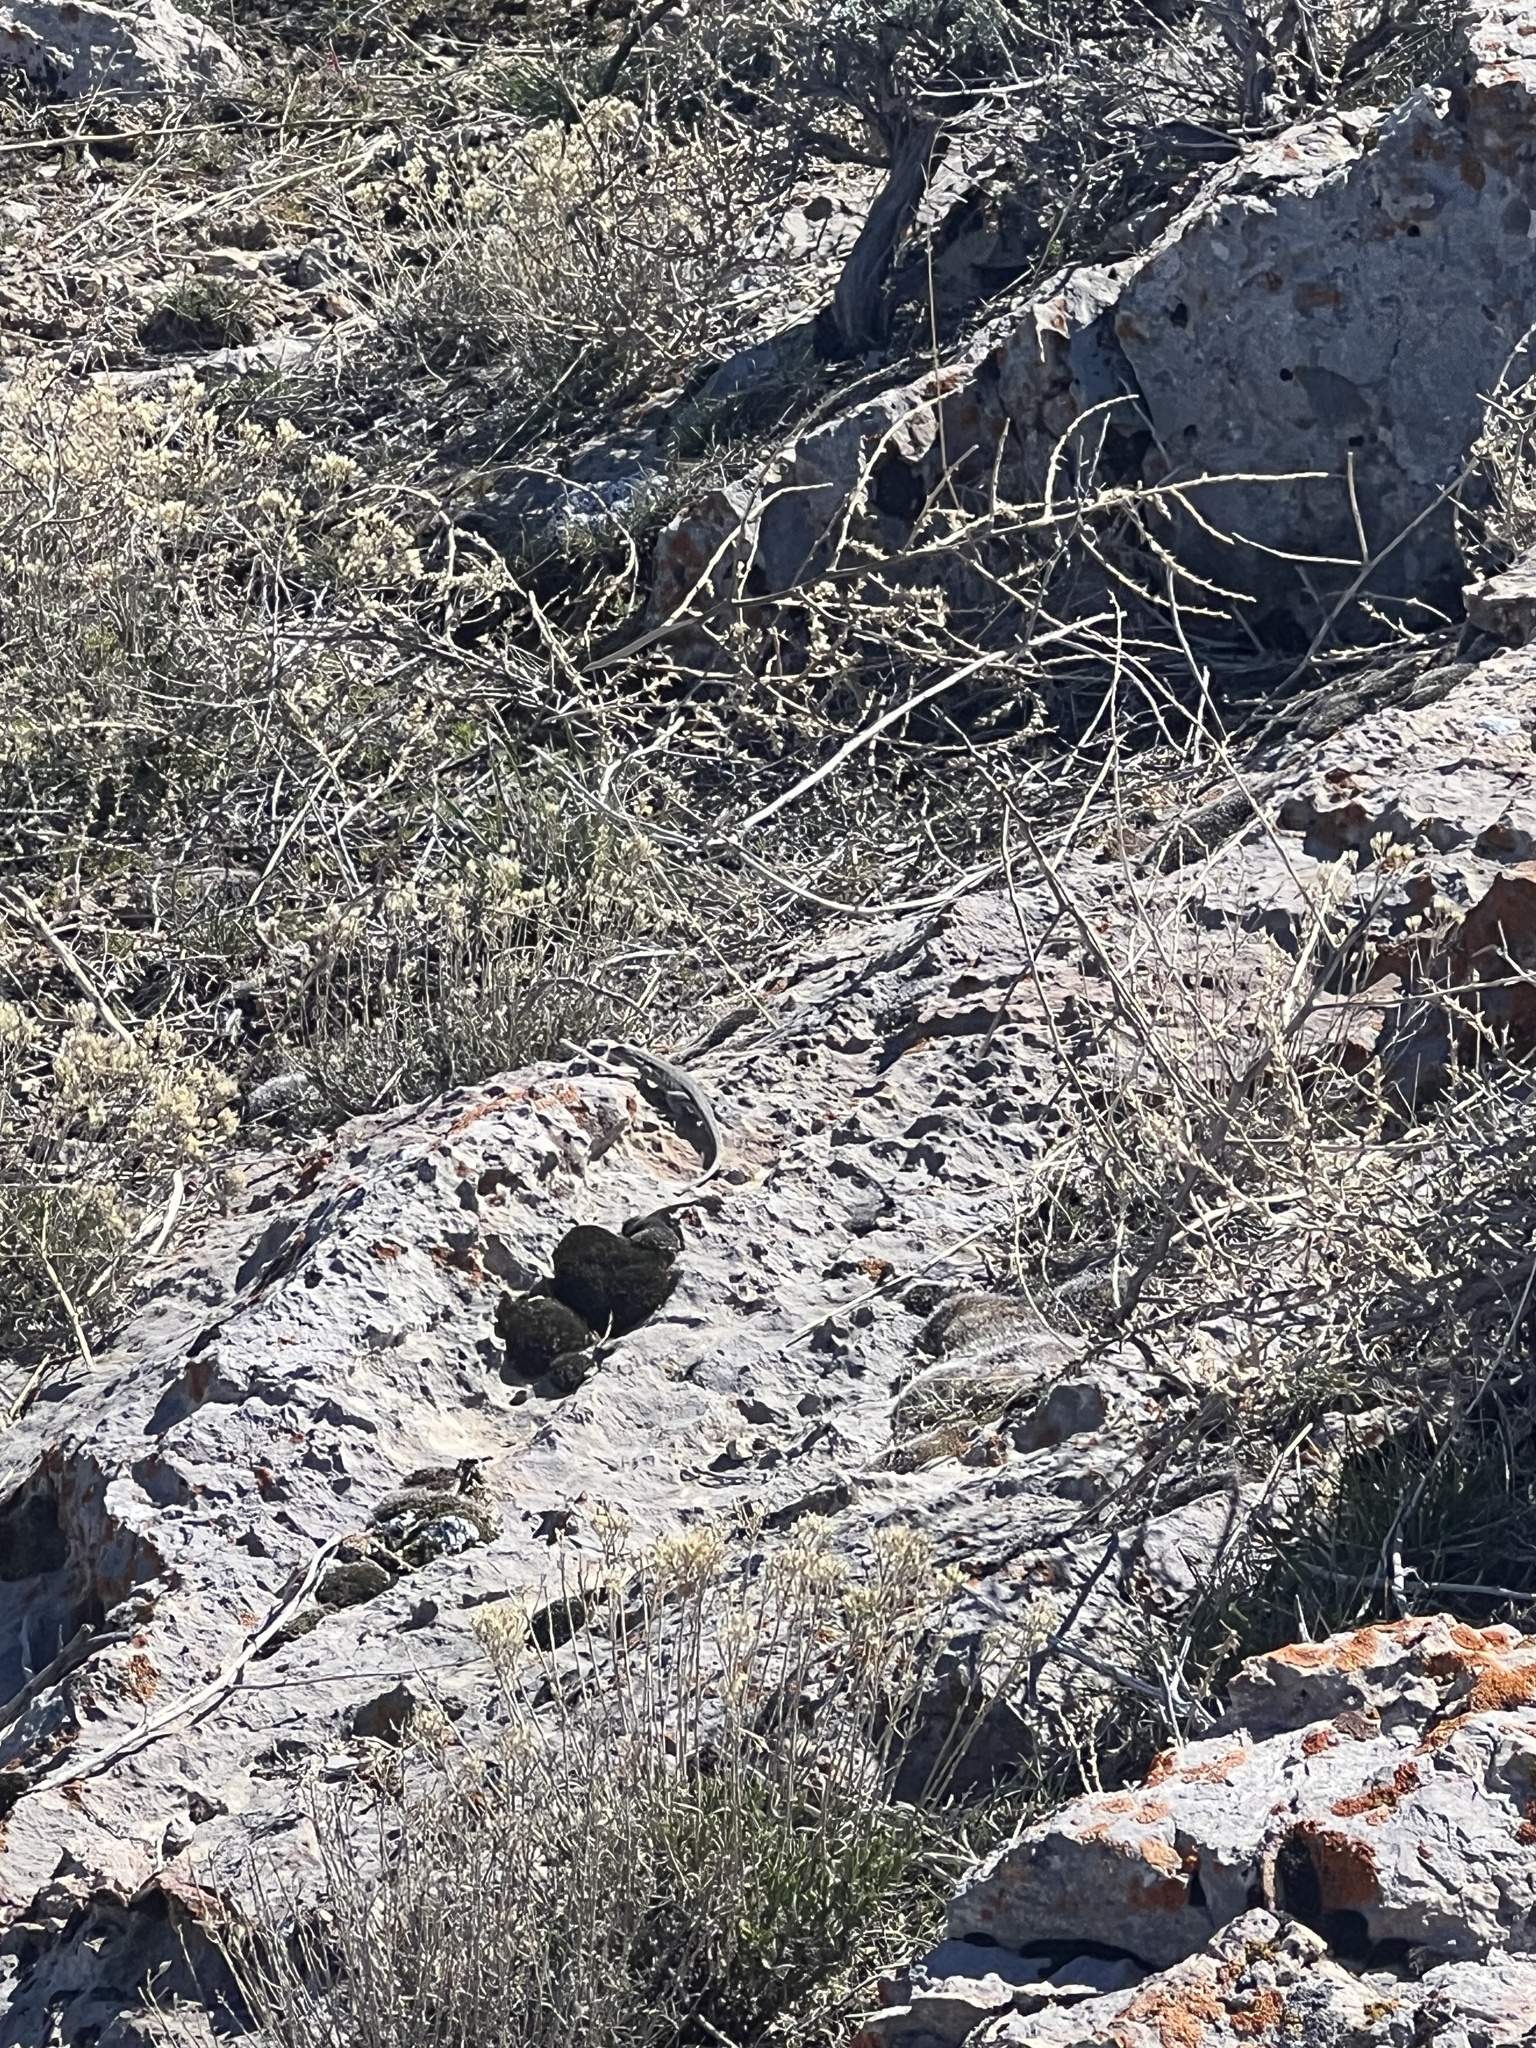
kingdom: Animalia
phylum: Chordata
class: Squamata
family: Phrynosomatidae
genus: Uta
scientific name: Uta stansburiana
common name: Side-blotched lizard
